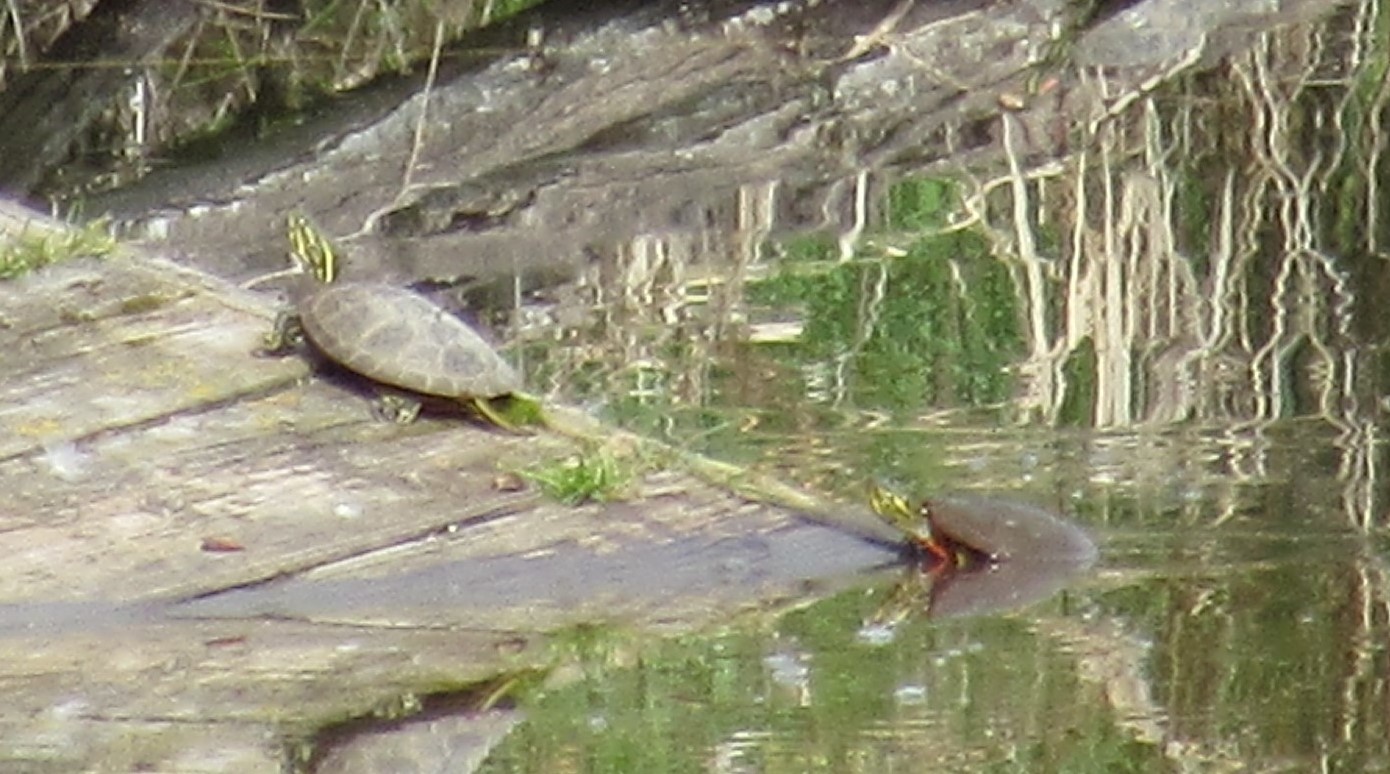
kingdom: Animalia
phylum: Chordata
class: Testudines
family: Emydidae
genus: Chrysemys
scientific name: Chrysemys picta
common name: Painted turtle
